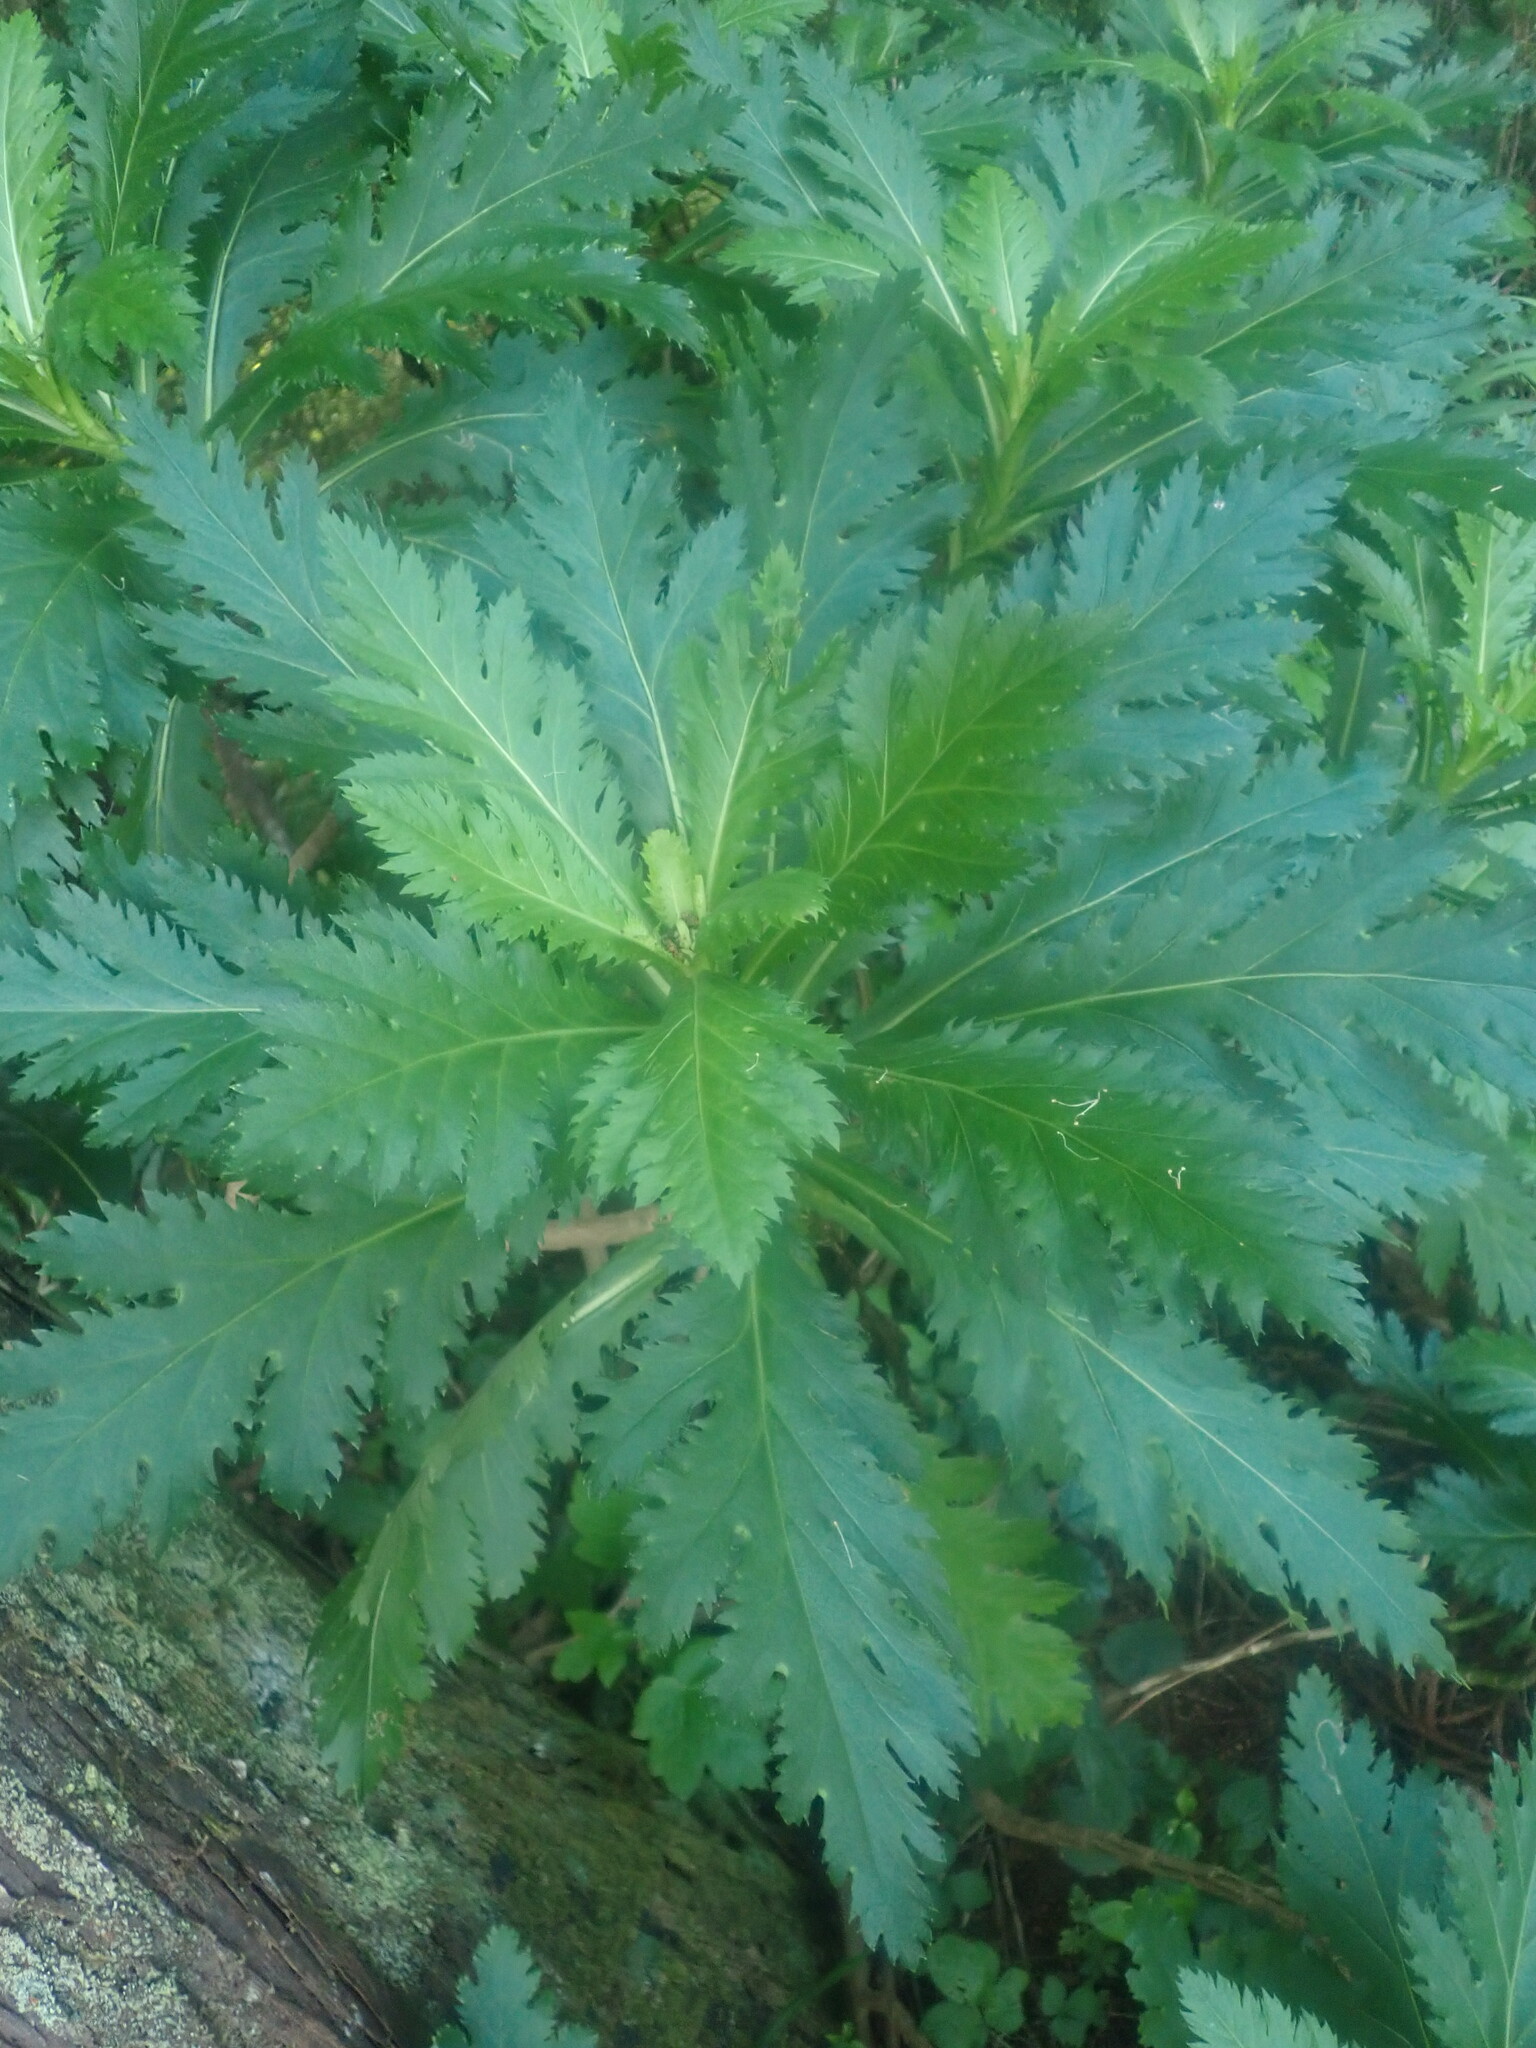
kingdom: Plantae
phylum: Tracheophyta
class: Magnoliopsida
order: Asterales
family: Asteraceae
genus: Argyranthemum
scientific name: Argyranthemum pinnatifidum
